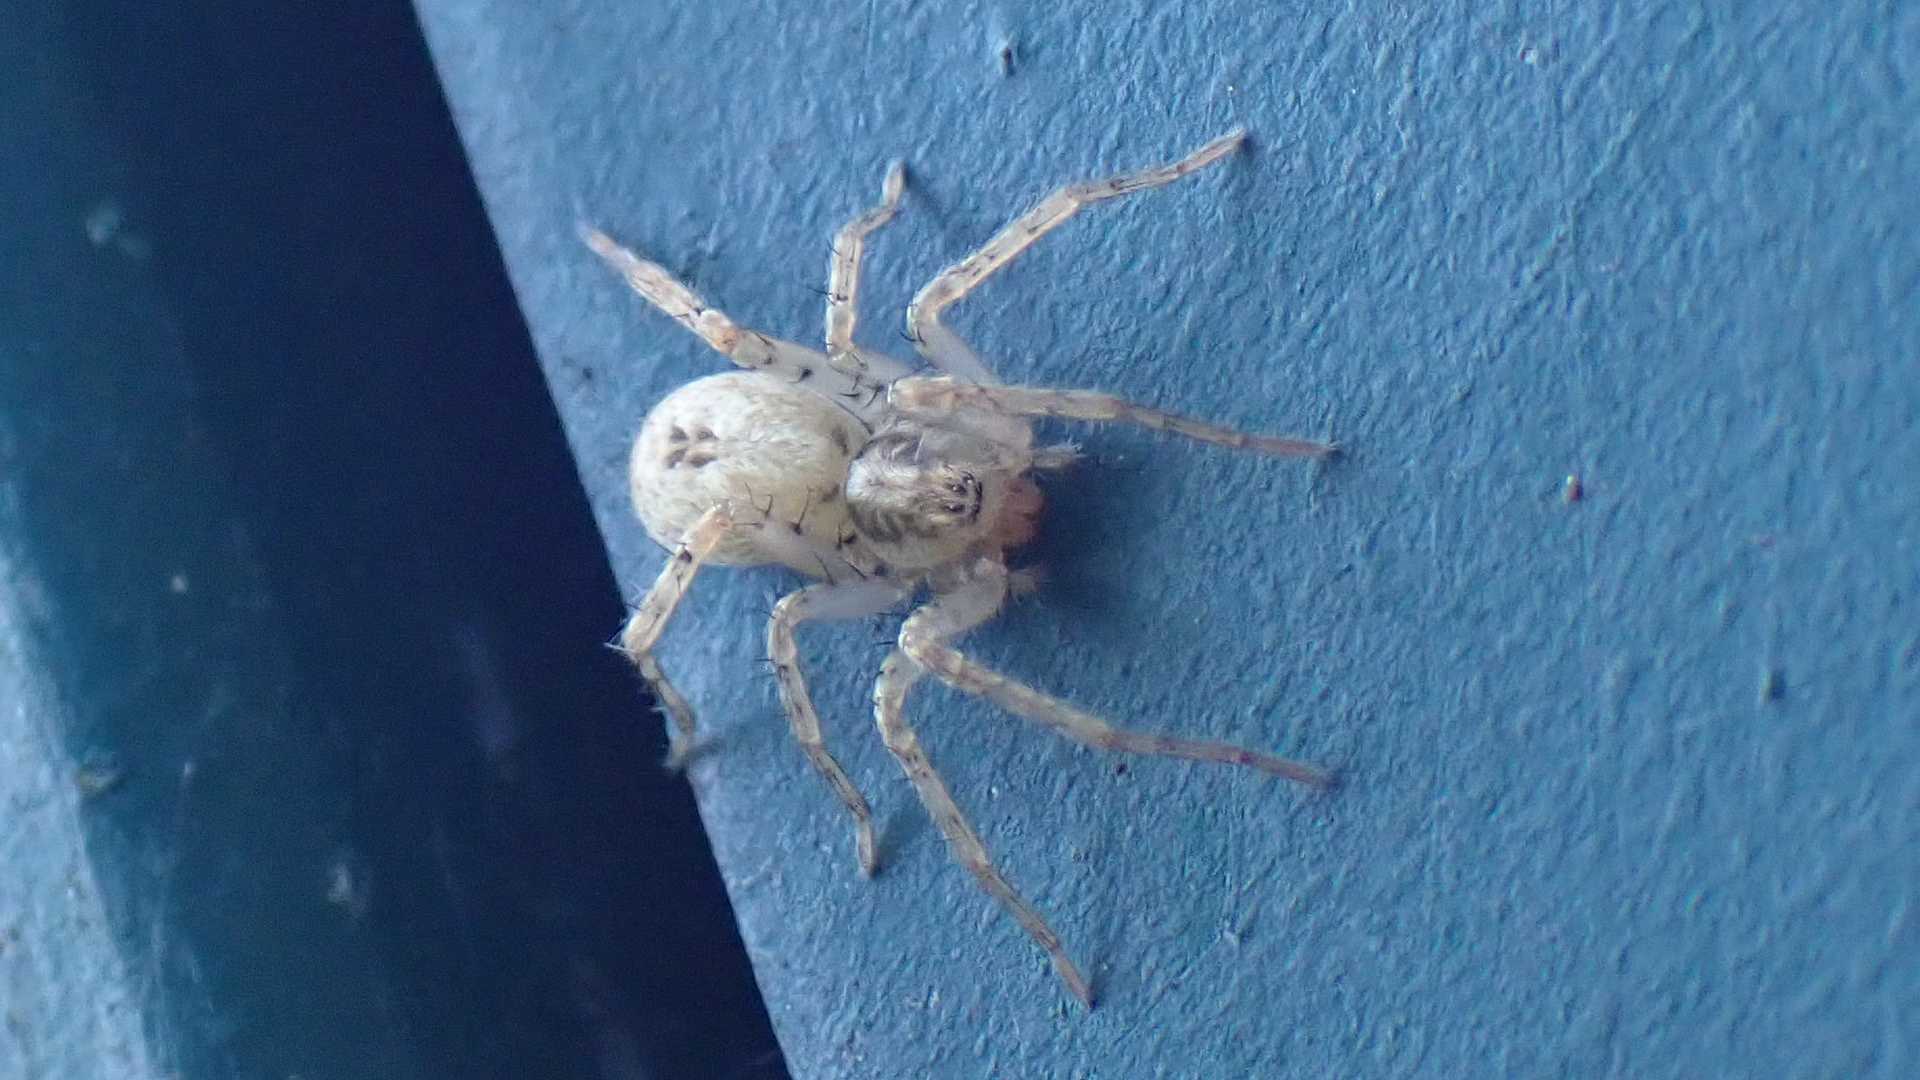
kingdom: Animalia
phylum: Arthropoda
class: Arachnida
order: Araneae
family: Anyphaenidae
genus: Anyphaena
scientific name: Anyphaena accentuata
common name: Buzzing spider
